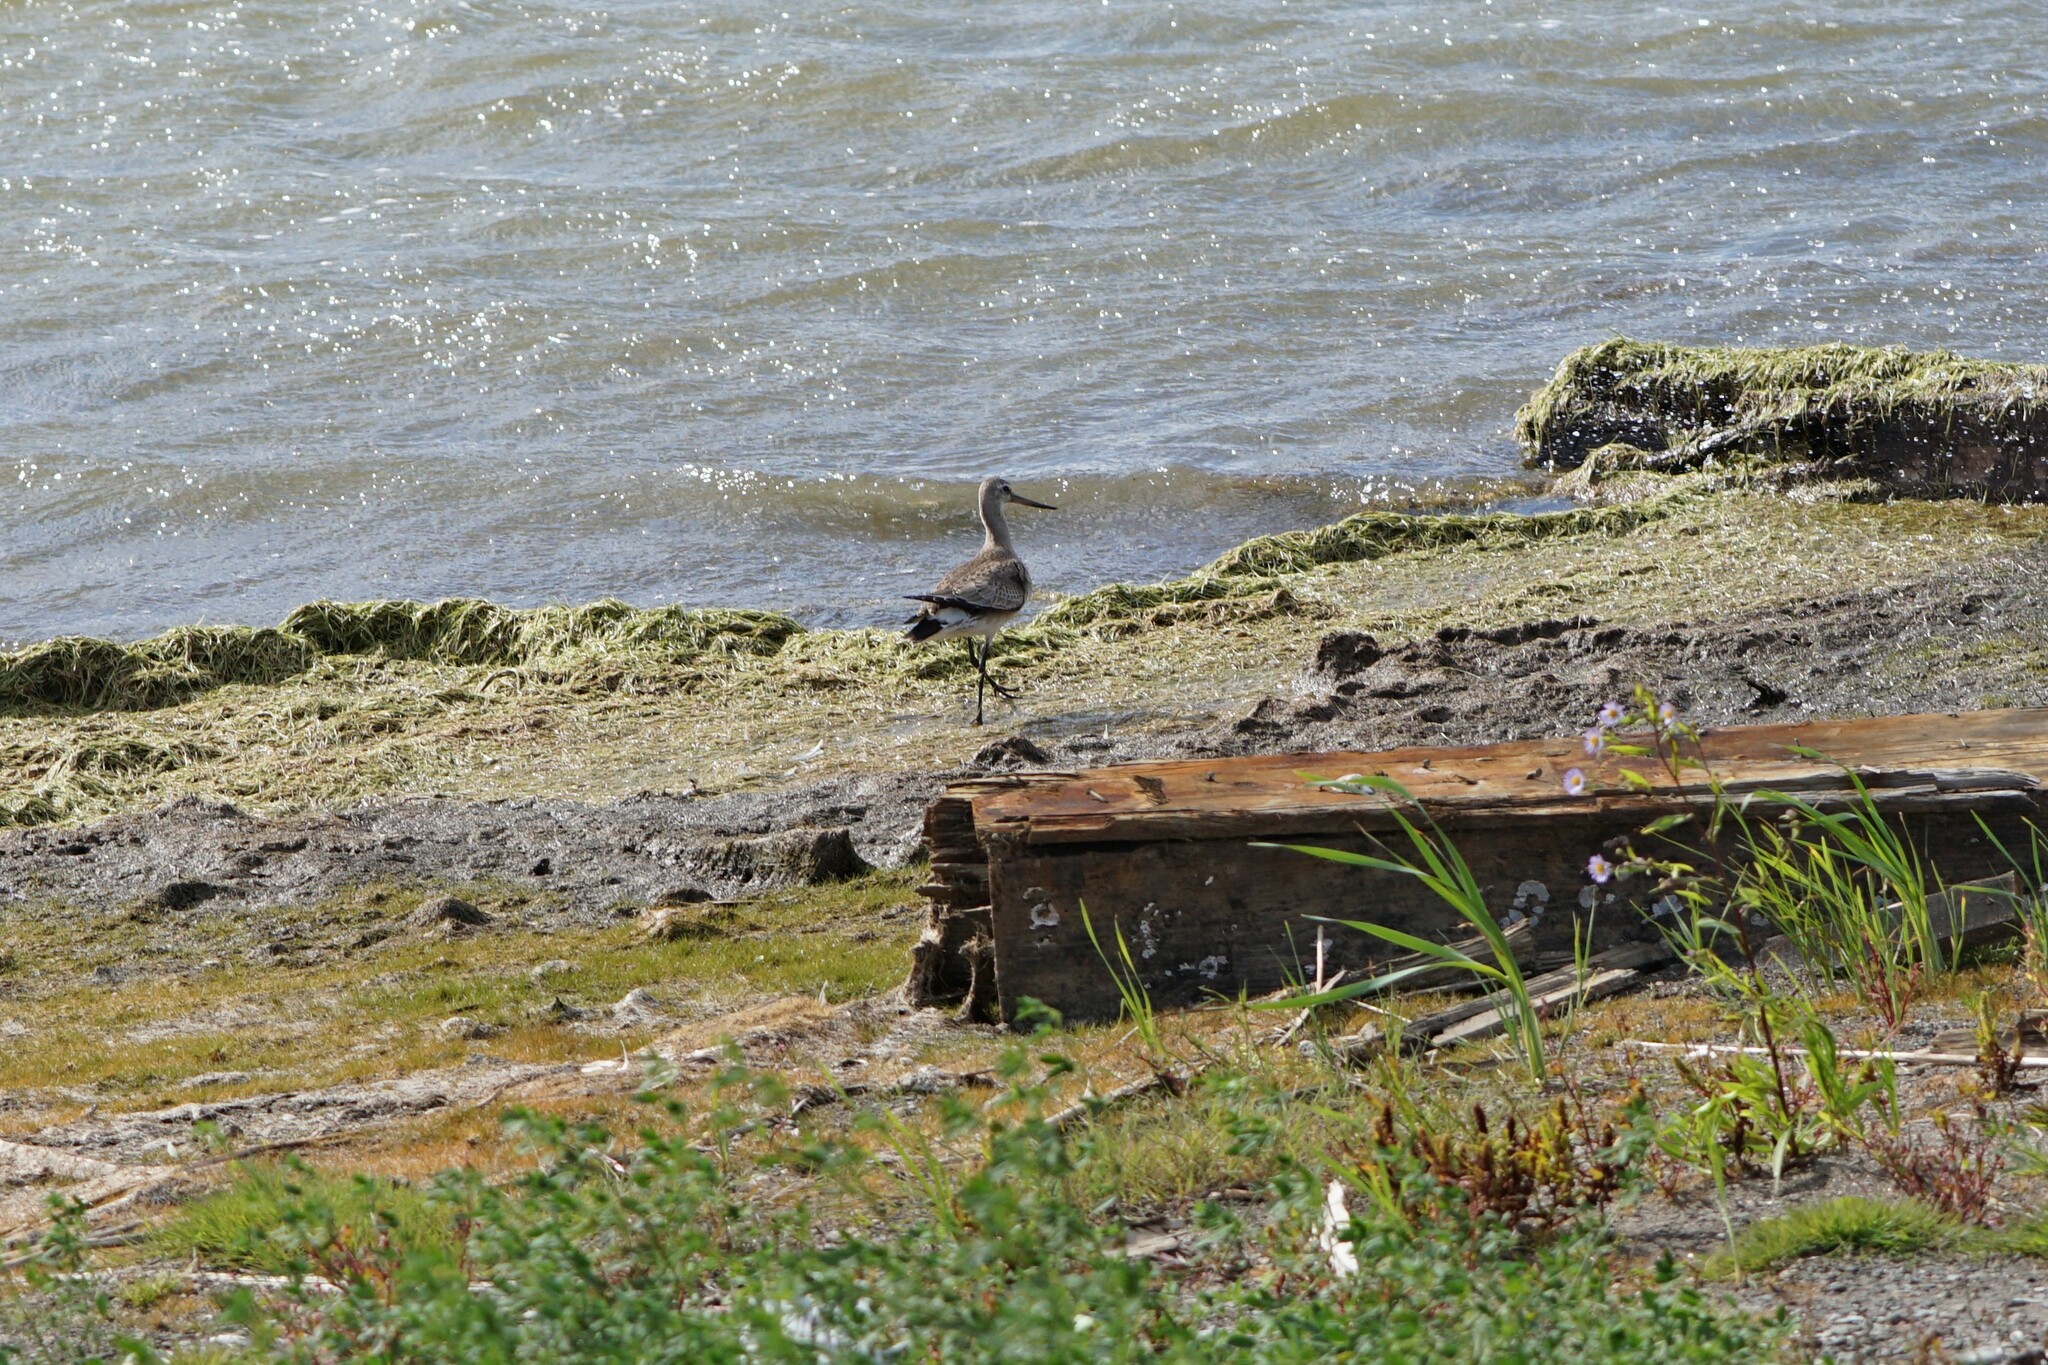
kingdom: Animalia
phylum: Chordata
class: Aves
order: Charadriiformes
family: Scolopacidae
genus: Limosa
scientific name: Limosa haemastica
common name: Hudsonian godwit
